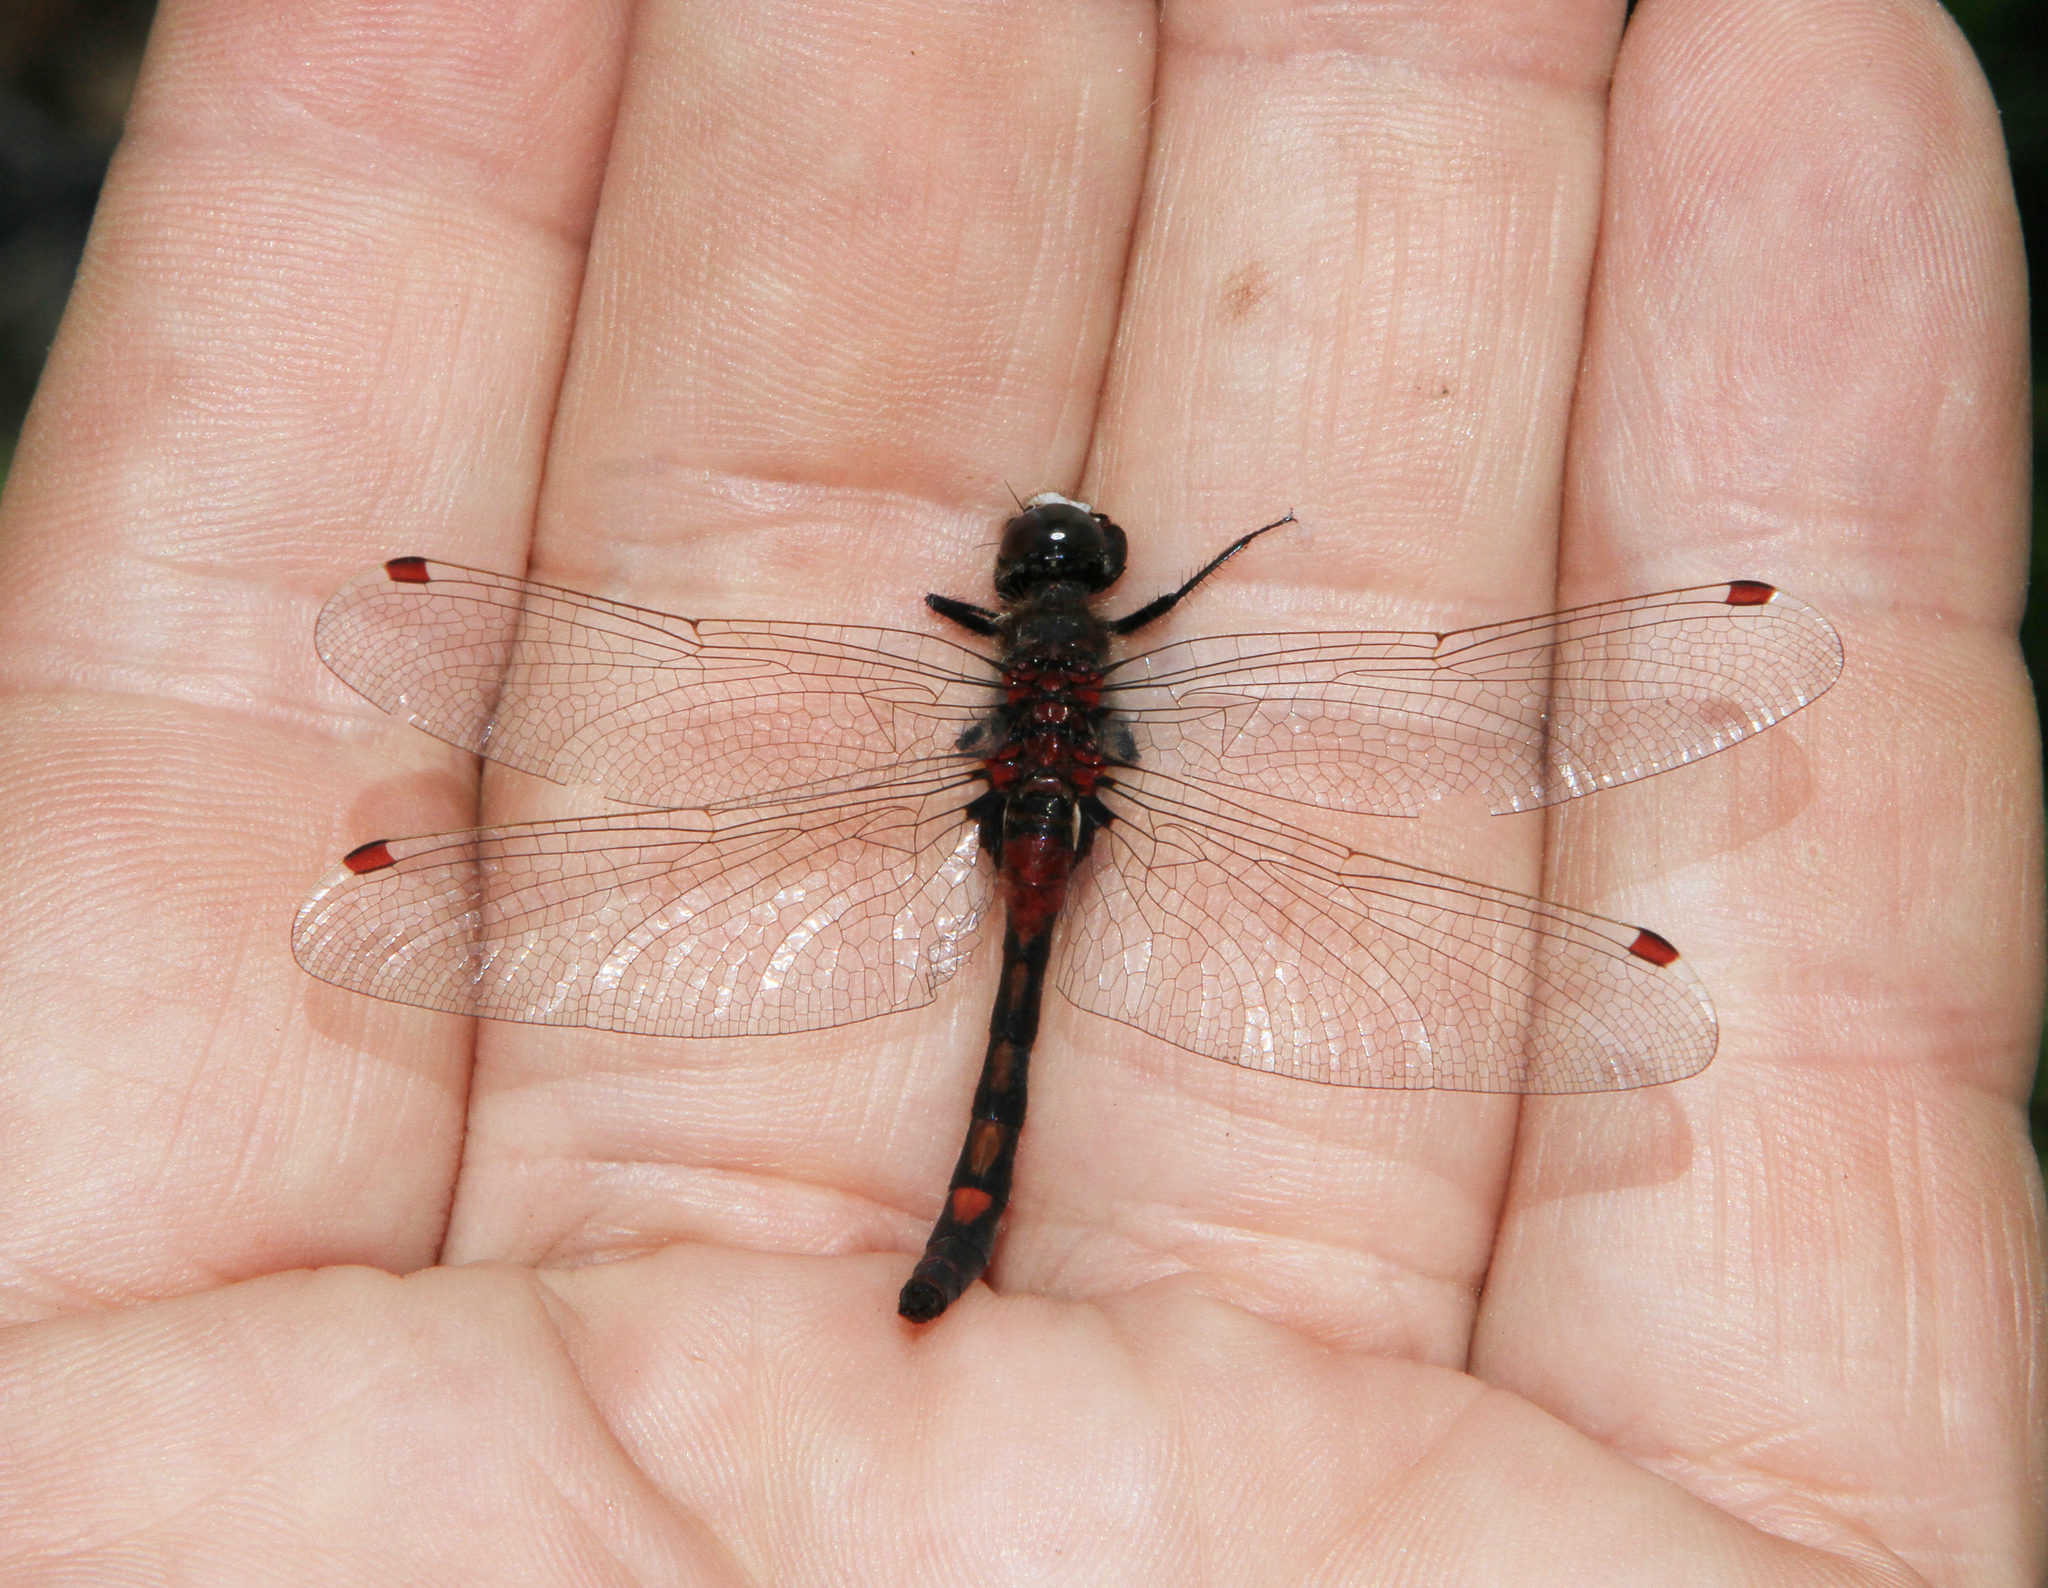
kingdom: Animalia
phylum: Arthropoda
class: Insecta
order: Odonata
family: Libellulidae
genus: Leucorrhinia
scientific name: Leucorrhinia rubicunda
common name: Ruby whiteface
